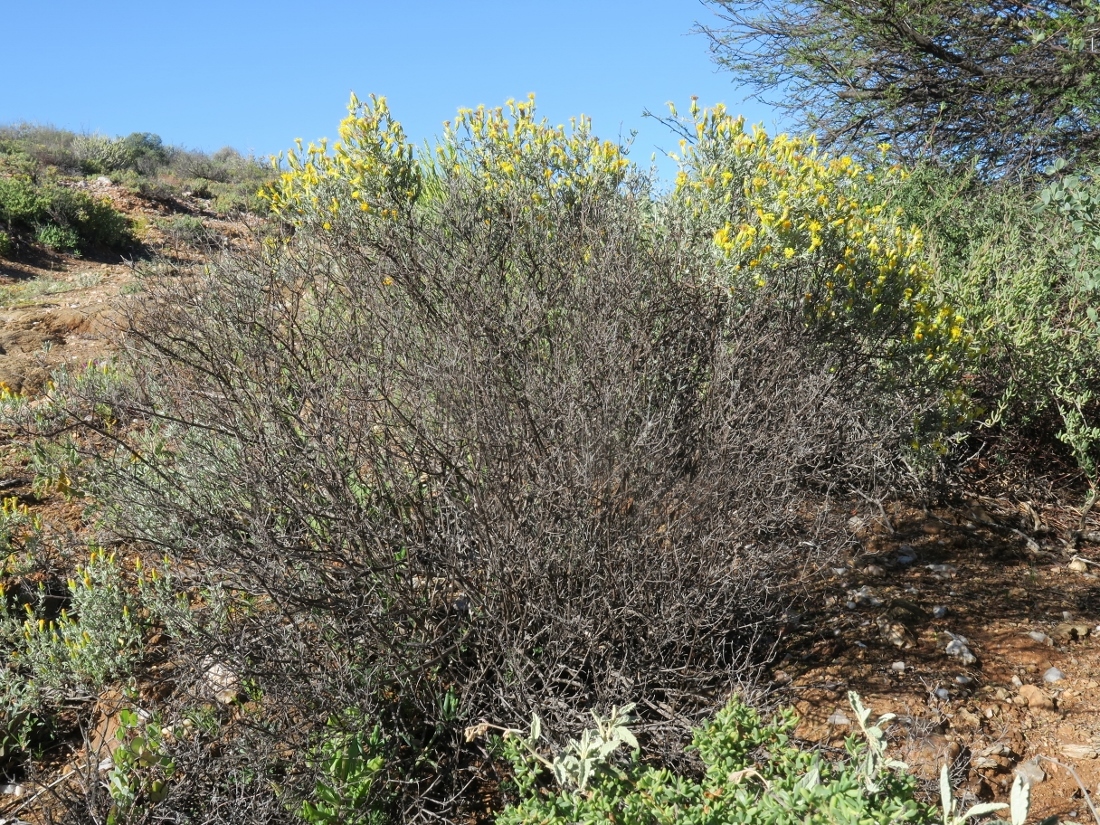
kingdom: Plantae
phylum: Tracheophyta
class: Magnoliopsida
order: Asterales
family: Asteraceae
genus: Pteronia
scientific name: Pteronia incana
